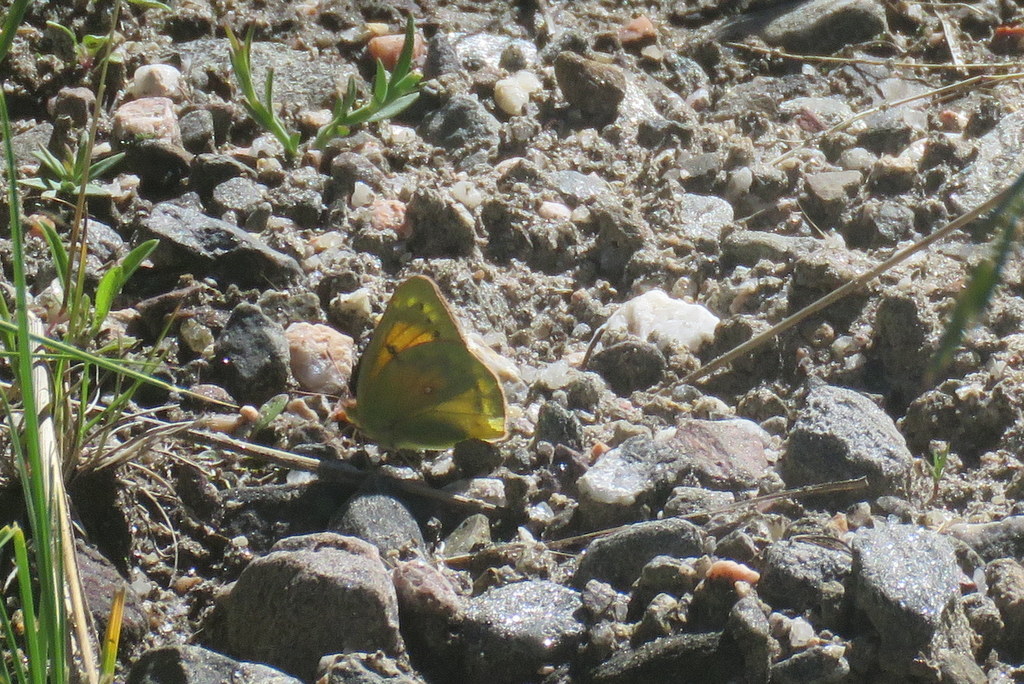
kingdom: Animalia
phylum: Arthropoda
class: Insecta
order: Lepidoptera
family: Pieridae
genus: Colias
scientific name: Colias lesbia
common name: Lesbia clouded yellow
